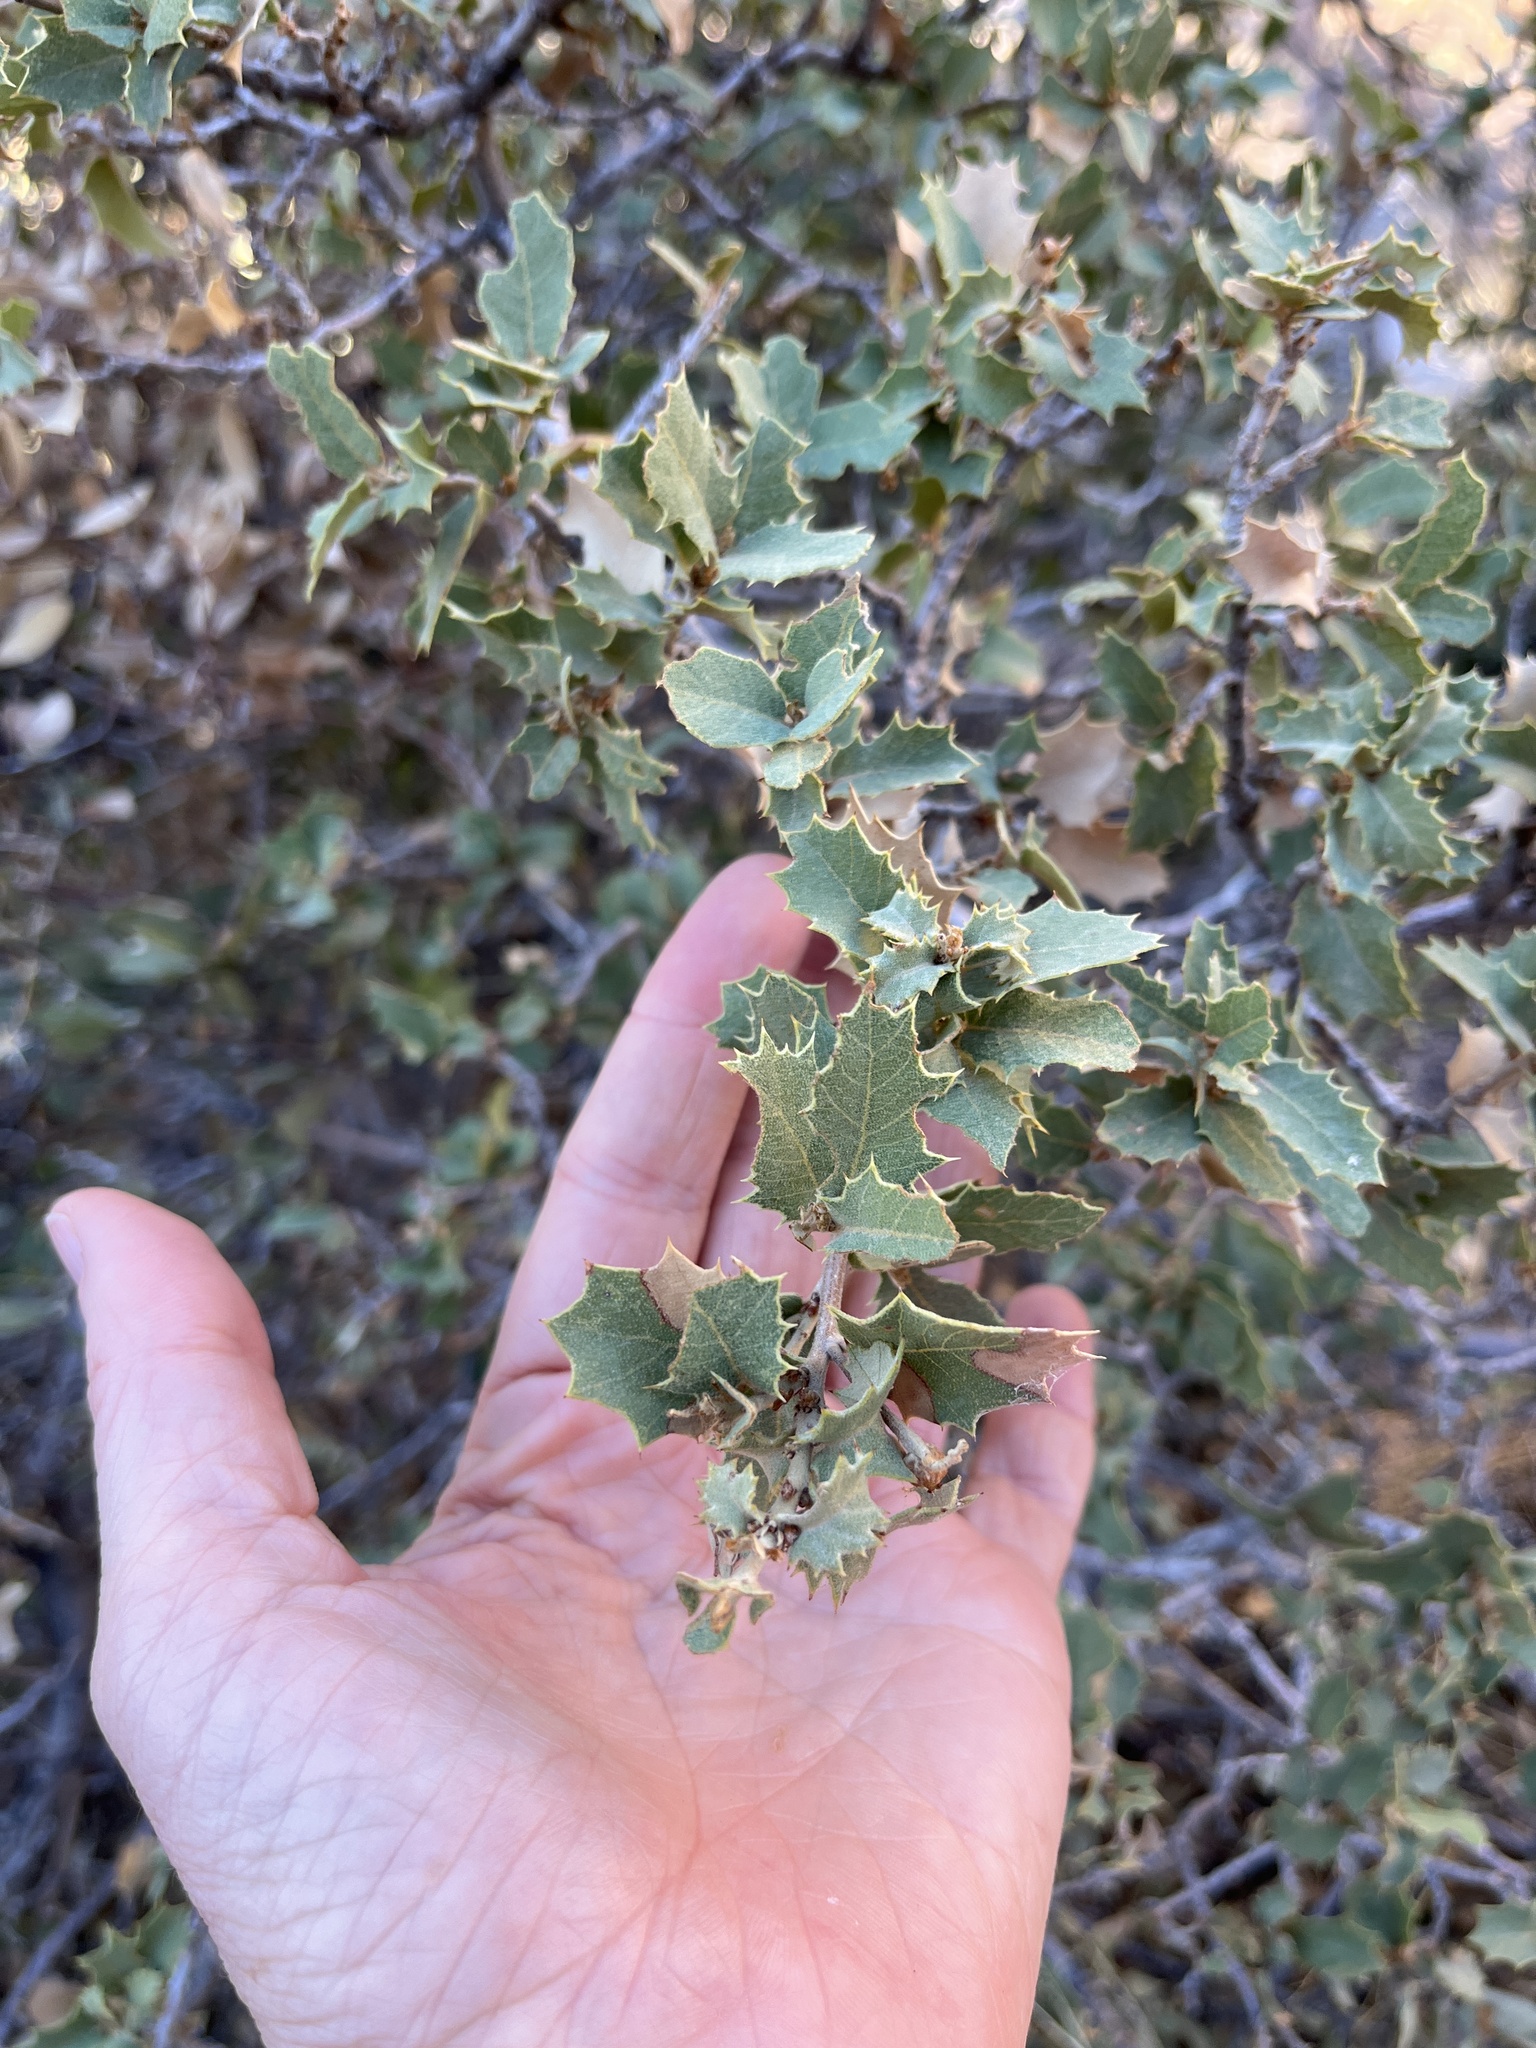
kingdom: Plantae
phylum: Tracheophyta
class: Magnoliopsida
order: Fagales
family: Fagaceae
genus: Quercus
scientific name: Quercus ajoensis
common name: Ajo mountain scrub oak
